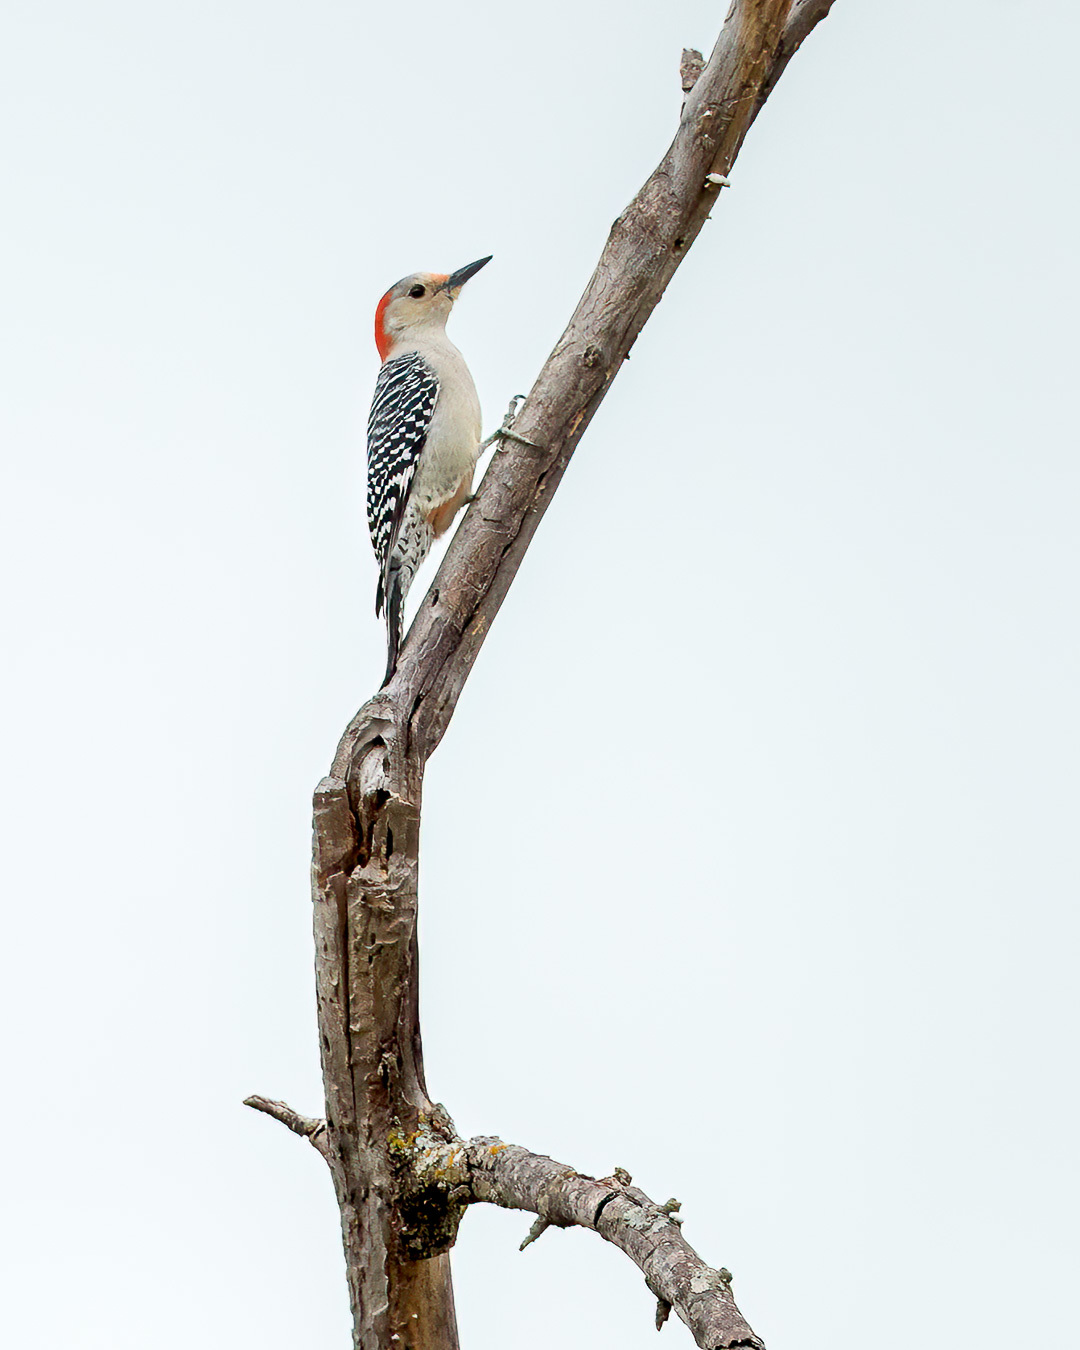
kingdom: Animalia
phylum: Chordata
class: Aves
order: Piciformes
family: Picidae
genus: Melanerpes
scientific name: Melanerpes carolinus
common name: Red-bellied woodpecker
